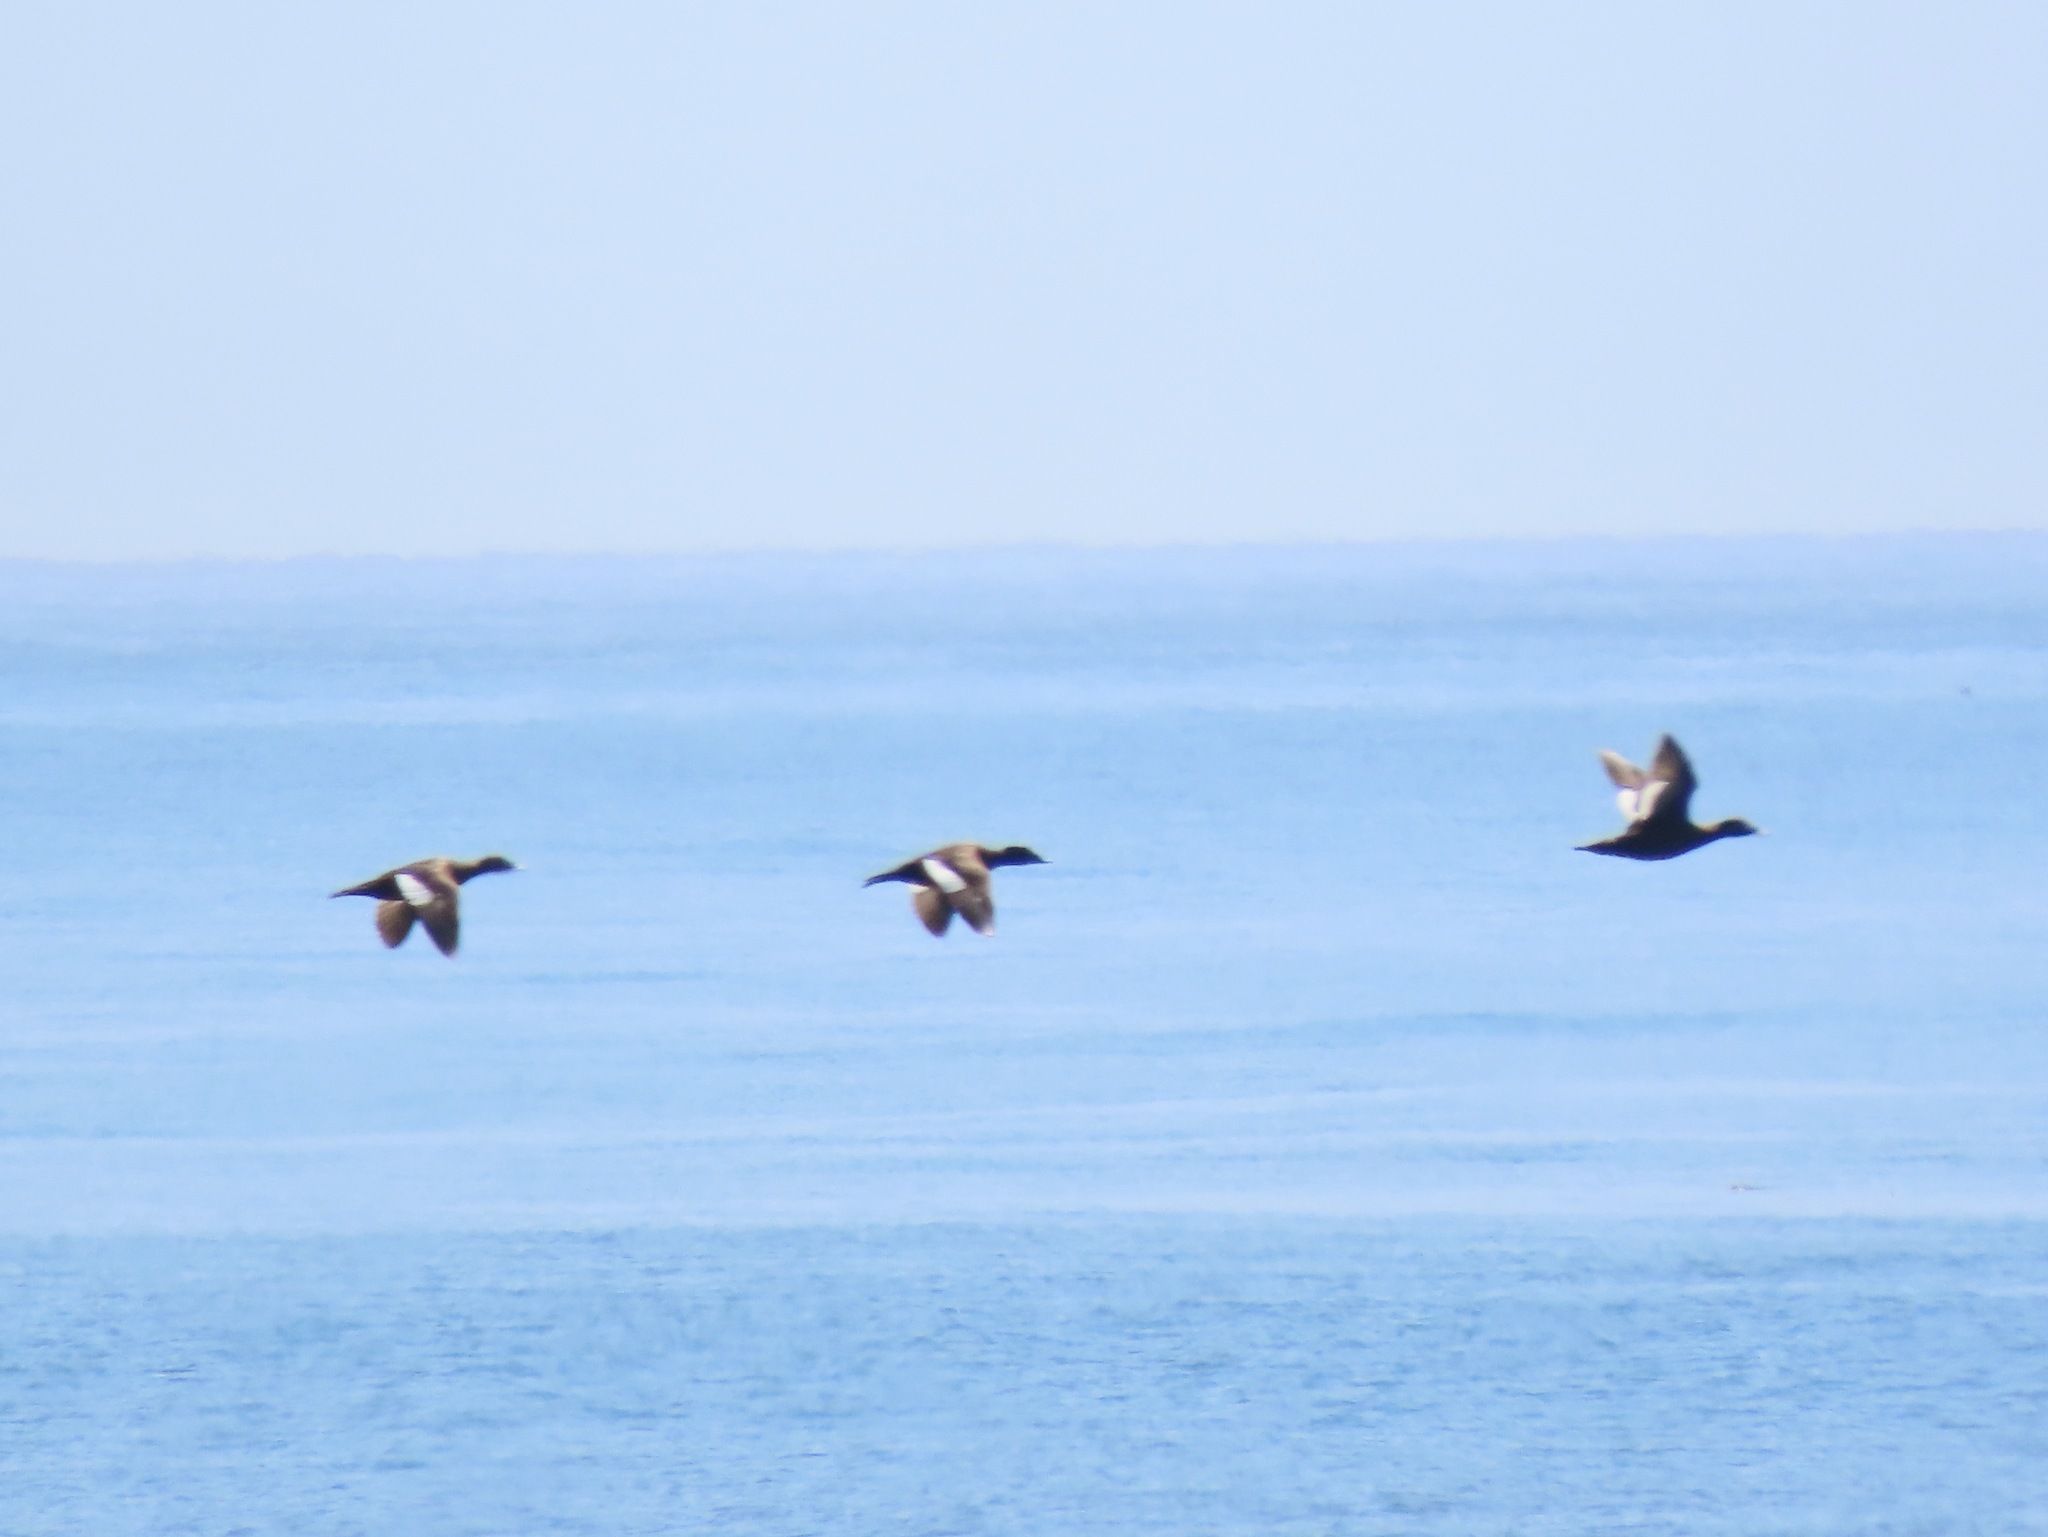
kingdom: Animalia
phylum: Chordata
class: Aves
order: Anseriformes
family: Anatidae
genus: Melanitta
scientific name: Melanitta deglandi
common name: White-winged scoter
